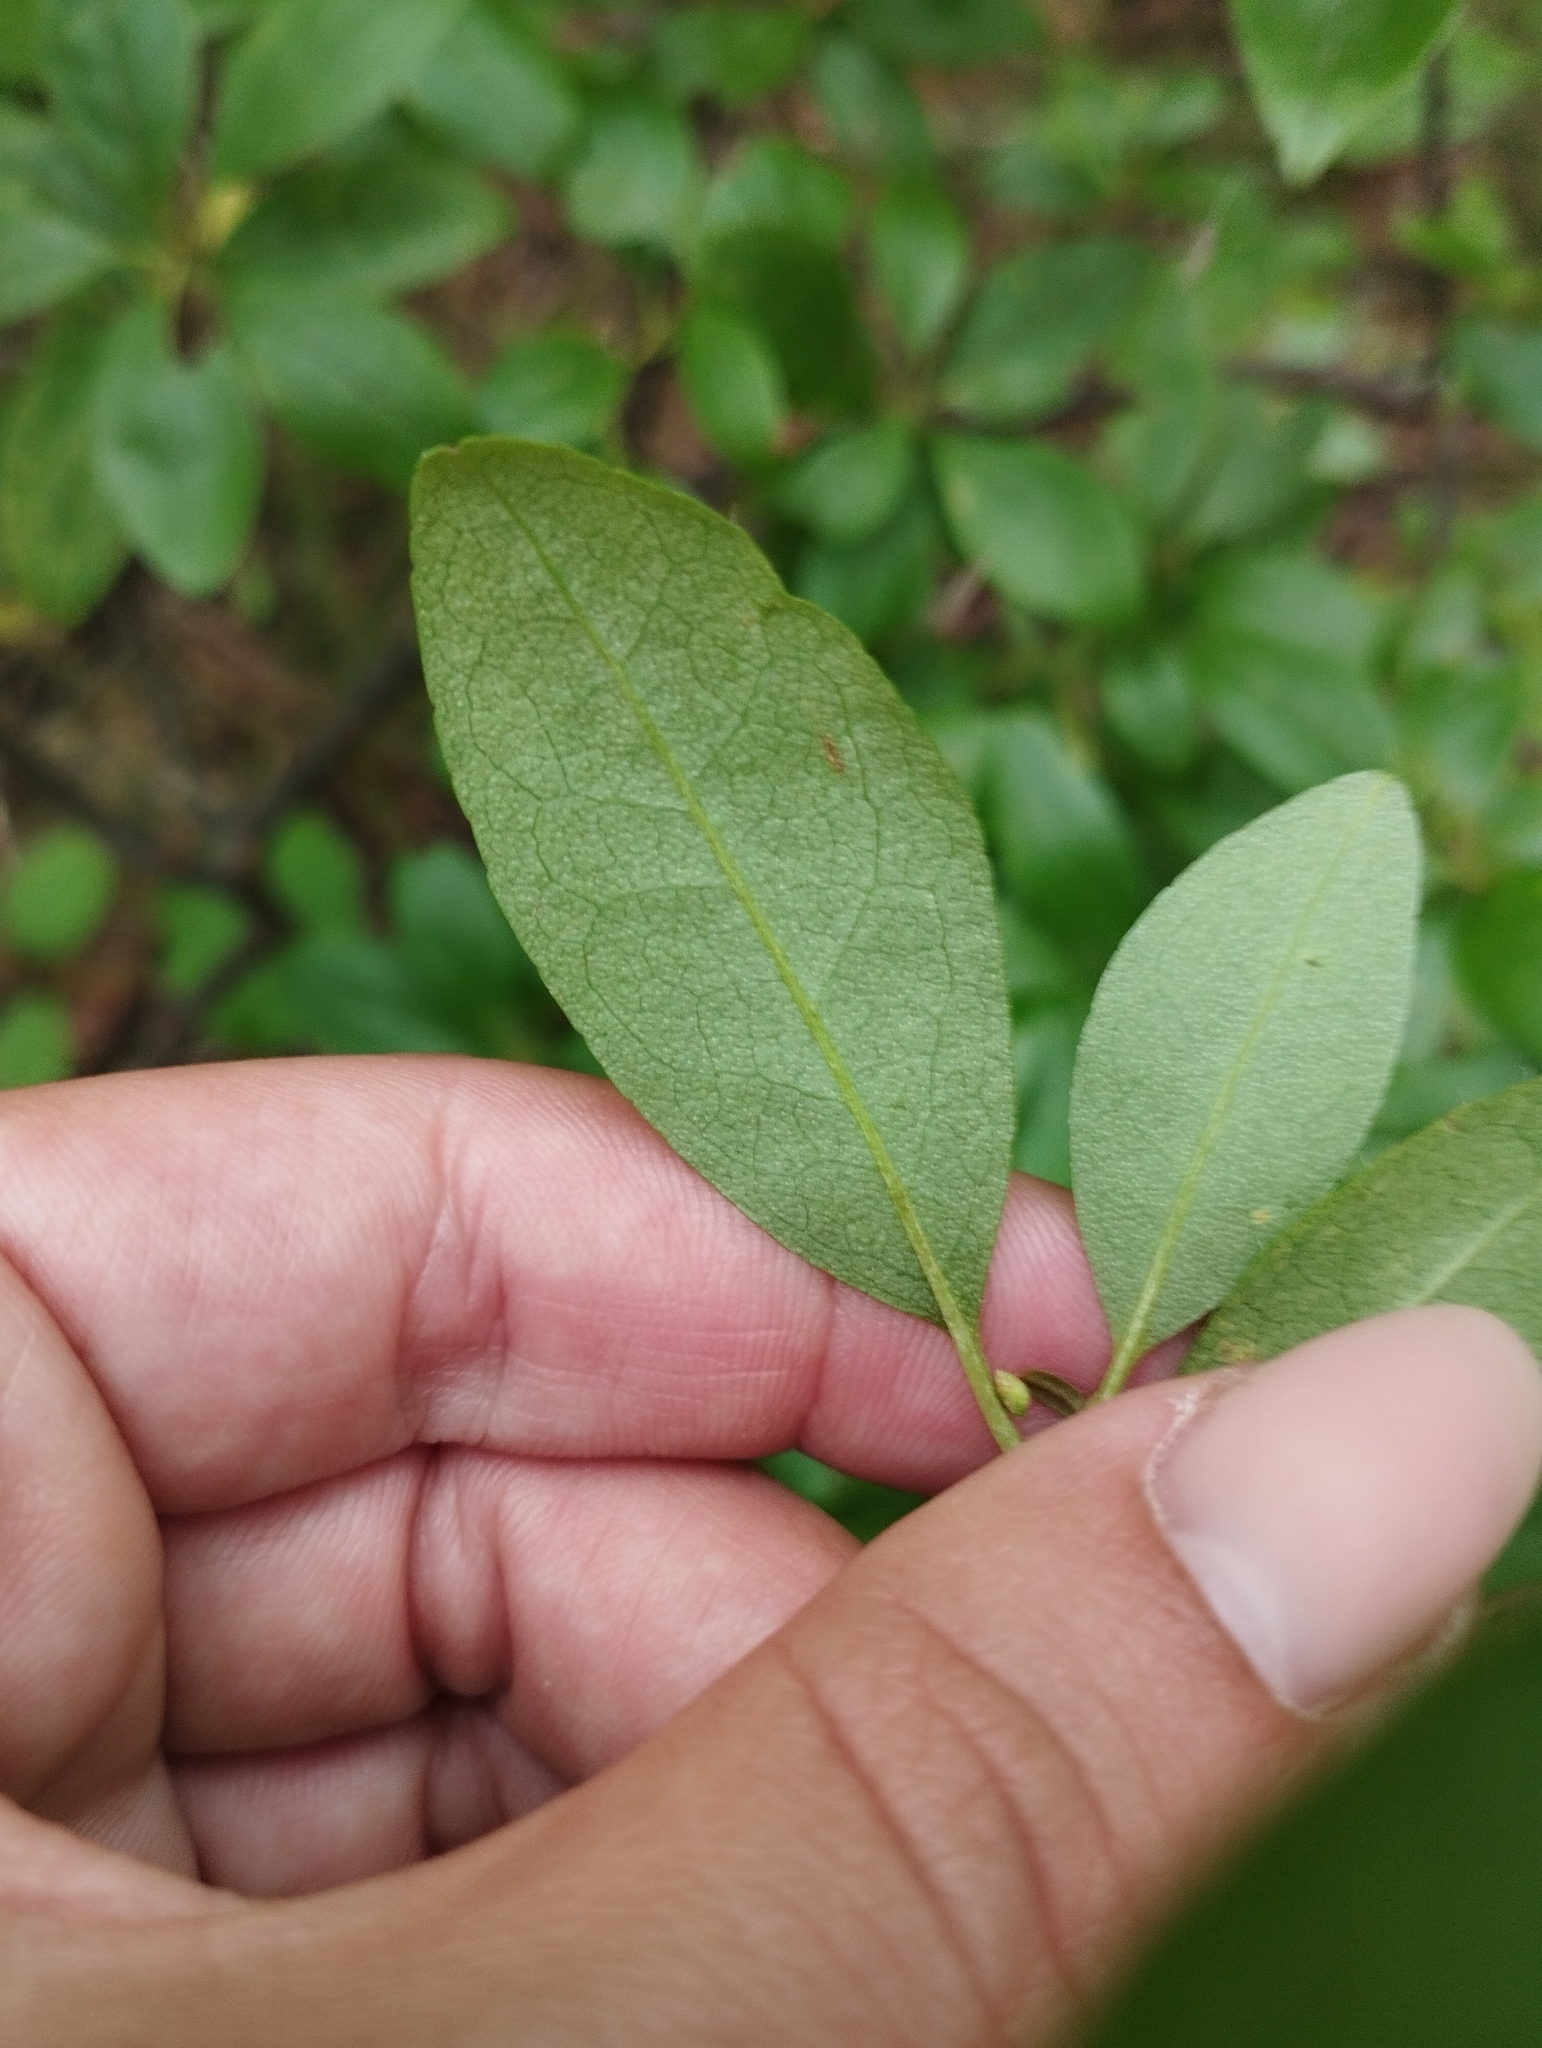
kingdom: Plantae
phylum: Tracheophyta
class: Magnoliopsida
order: Ericales
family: Ericaceae
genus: Rhododendron
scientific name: Rhododendron mucronulatum
